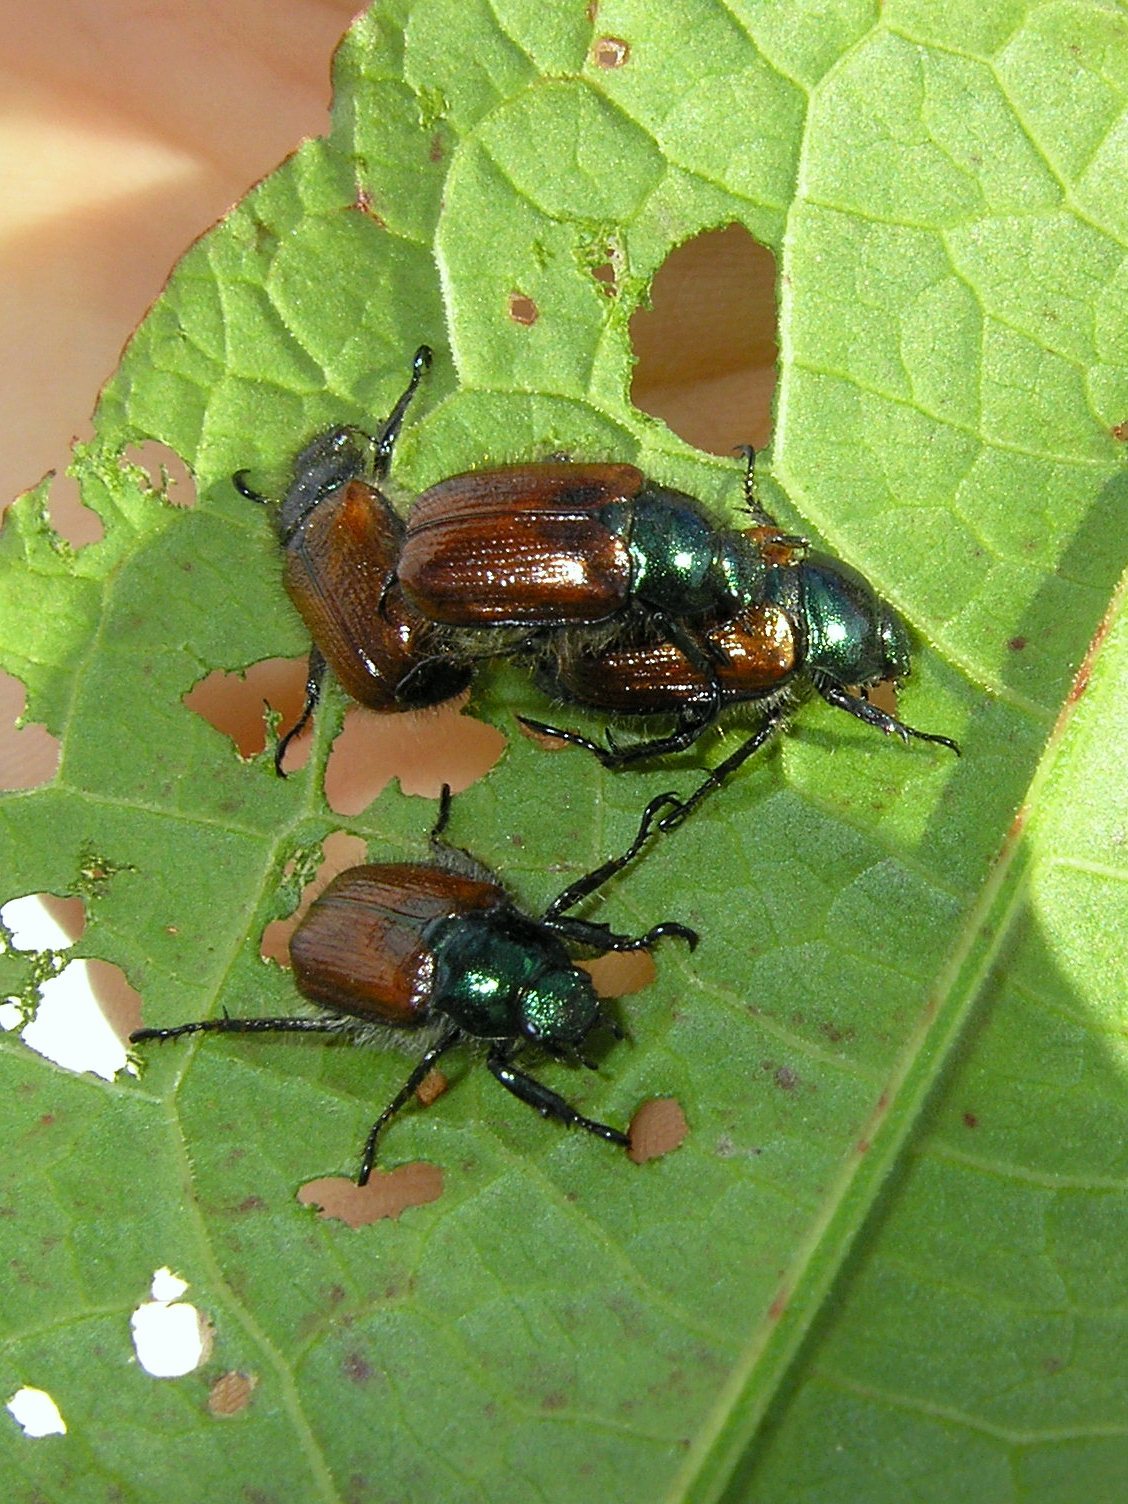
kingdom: Animalia
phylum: Arthropoda
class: Insecta
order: Coleoptera
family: Scarabaeidae
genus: Phyllopertha
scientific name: Phyllopertha horticola
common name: Garden chafer
